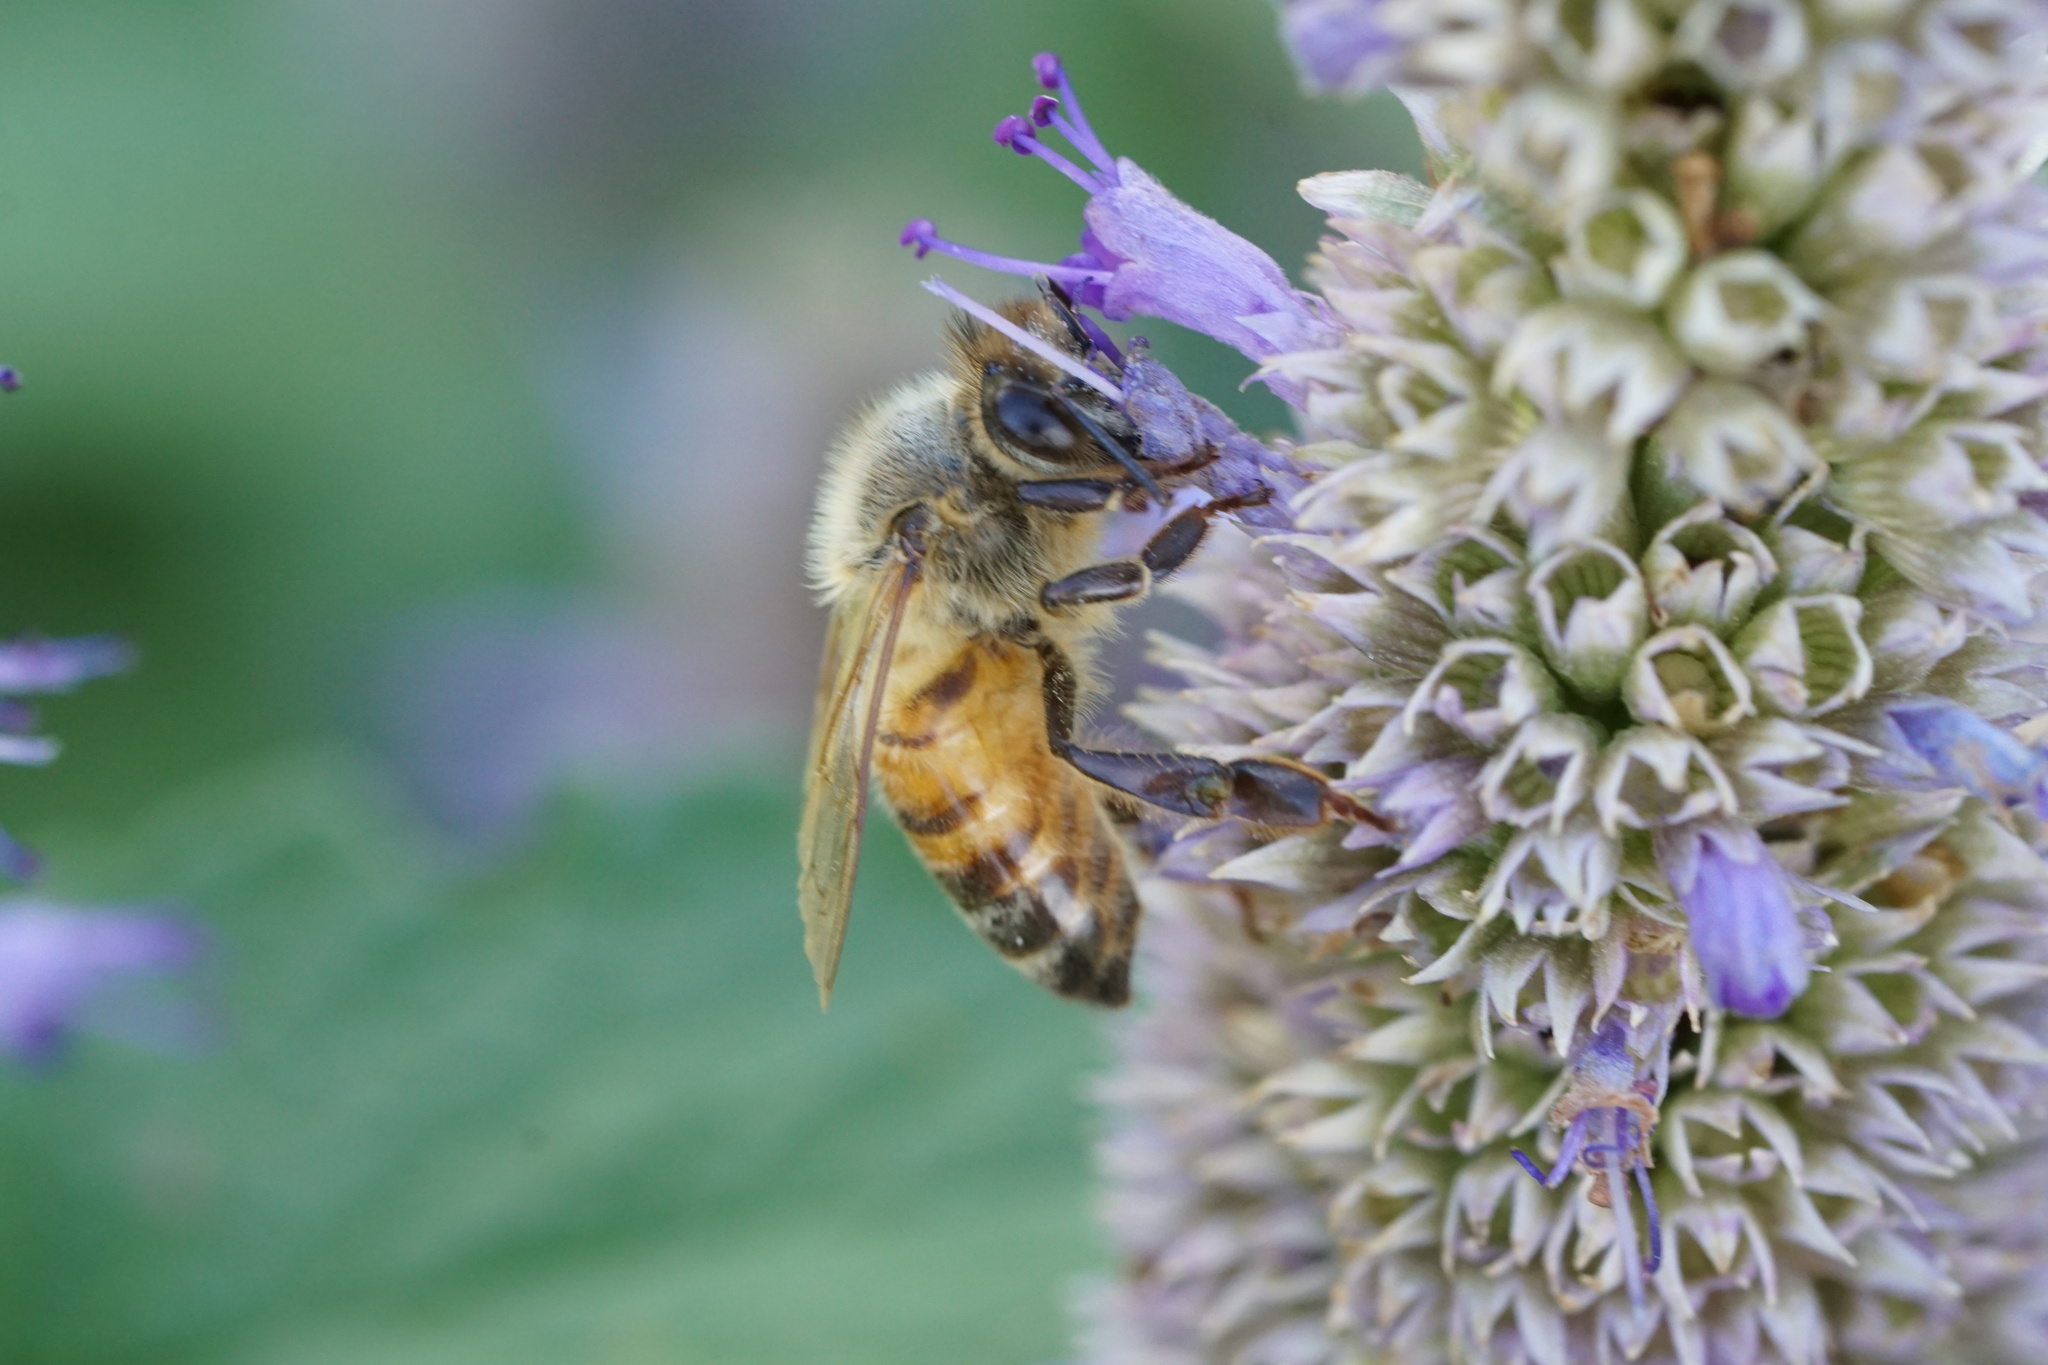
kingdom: Animalia
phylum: Arthropoda
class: Insecta
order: Hymenoptera
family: Apidae
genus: Apis
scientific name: Apis mellifera
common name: Honey bee
